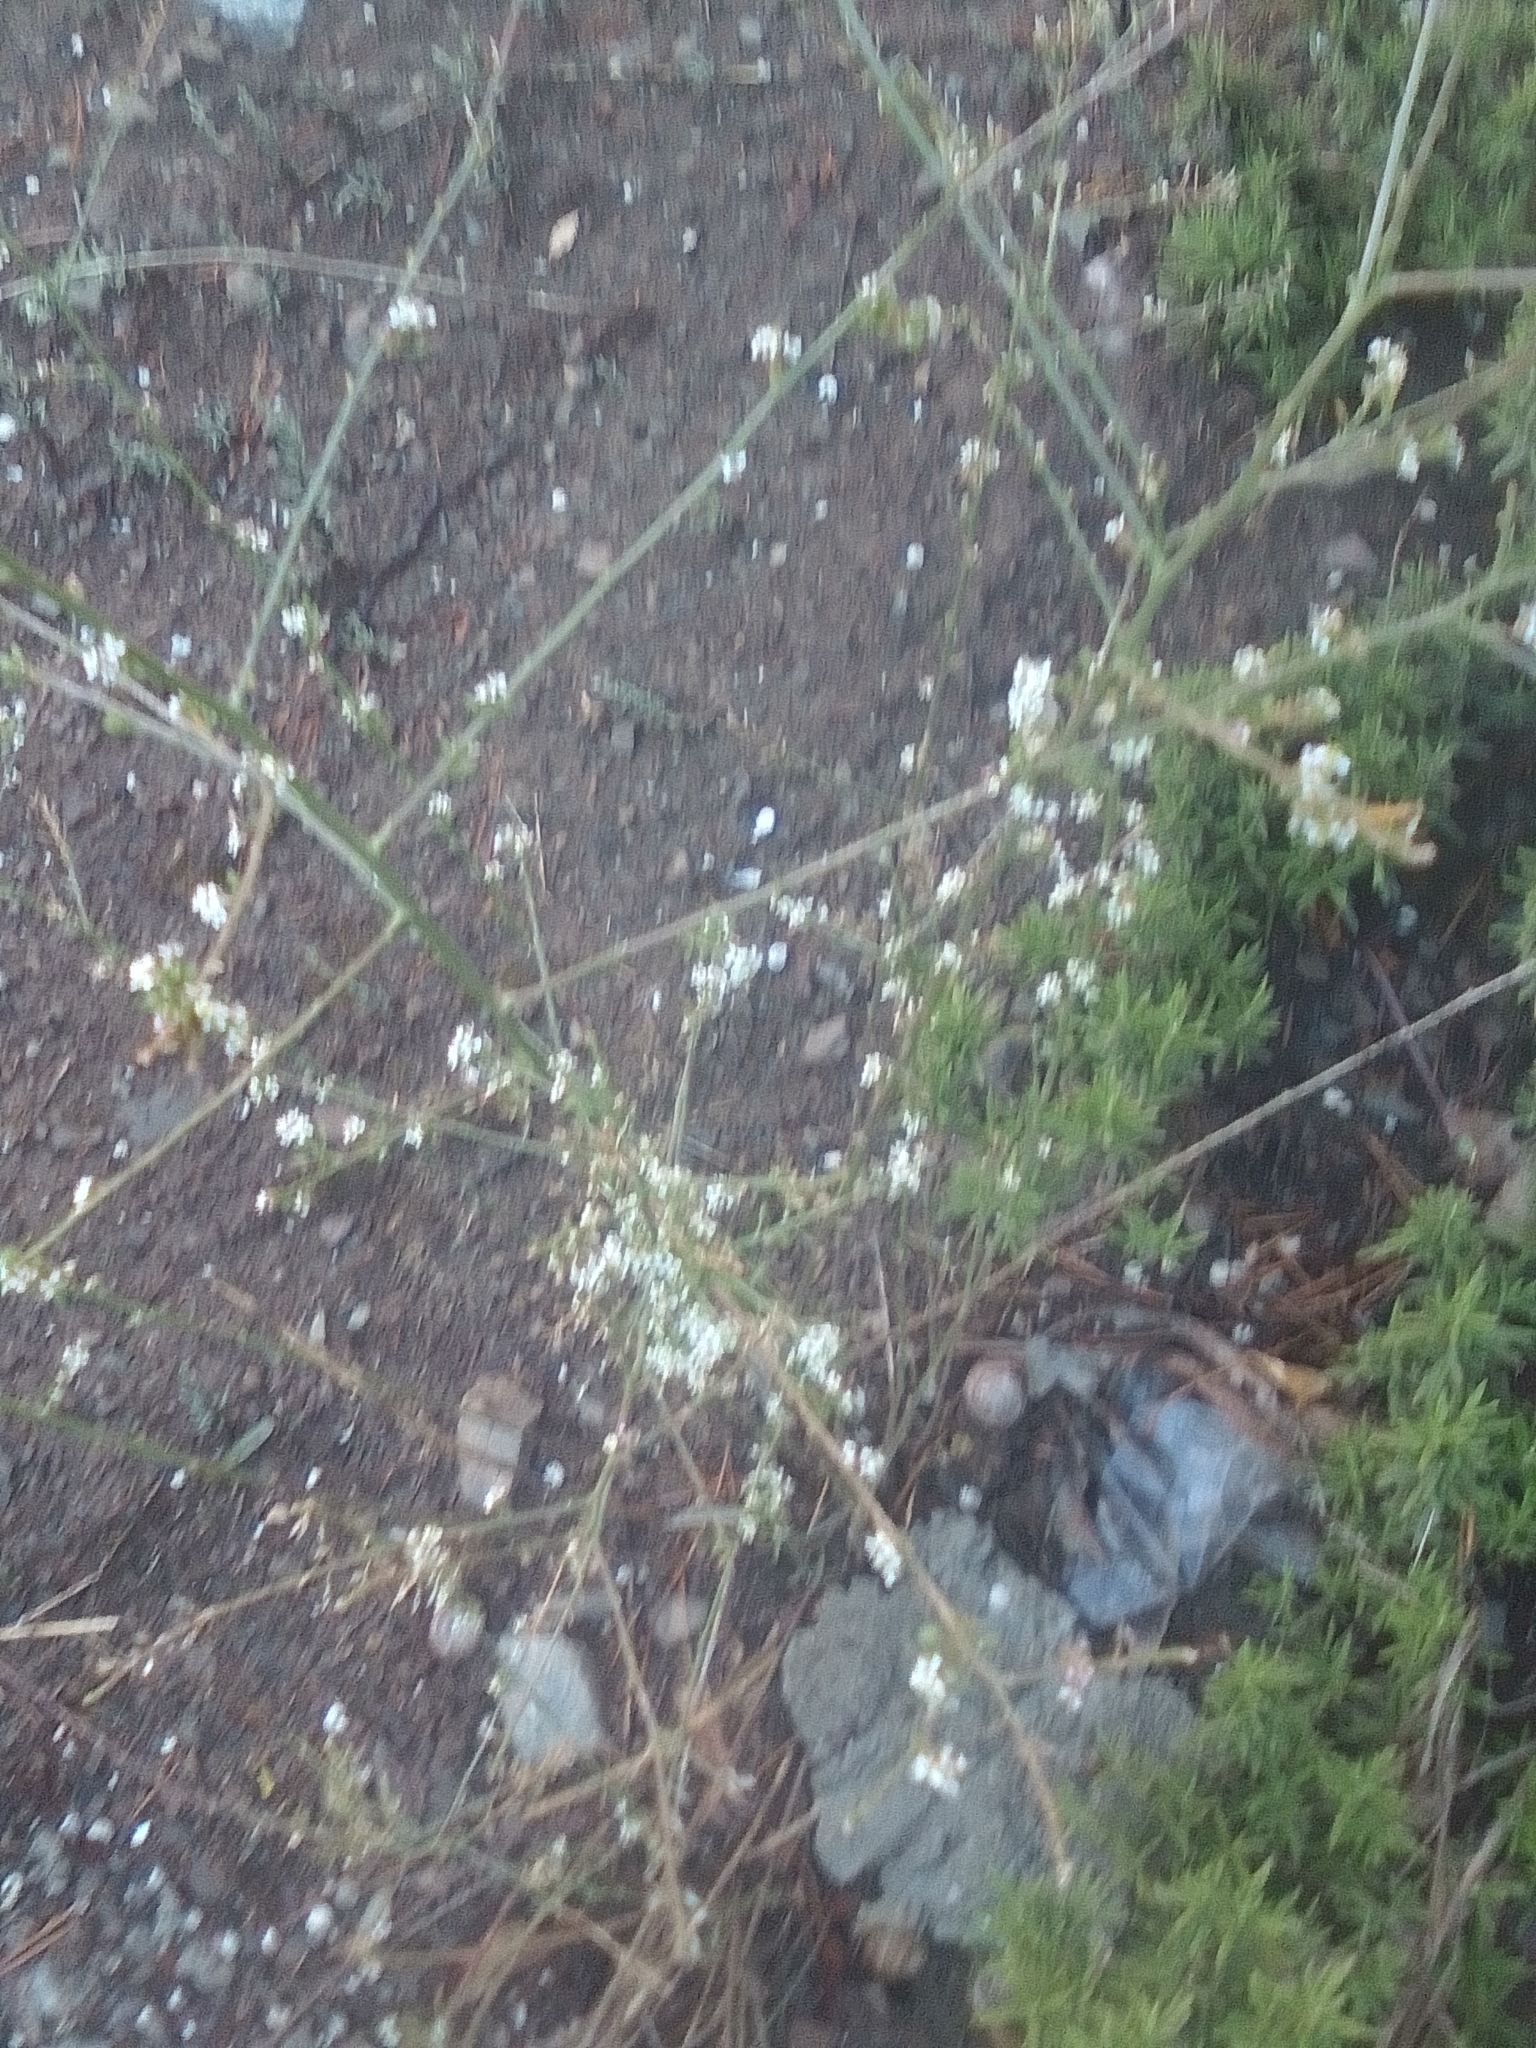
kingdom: Plantae
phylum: Tracheophyta
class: Magnoliopsida
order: Gentianales
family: Rubiaceae
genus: Galium
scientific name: Galium humifusum
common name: Spreading bedstraw
